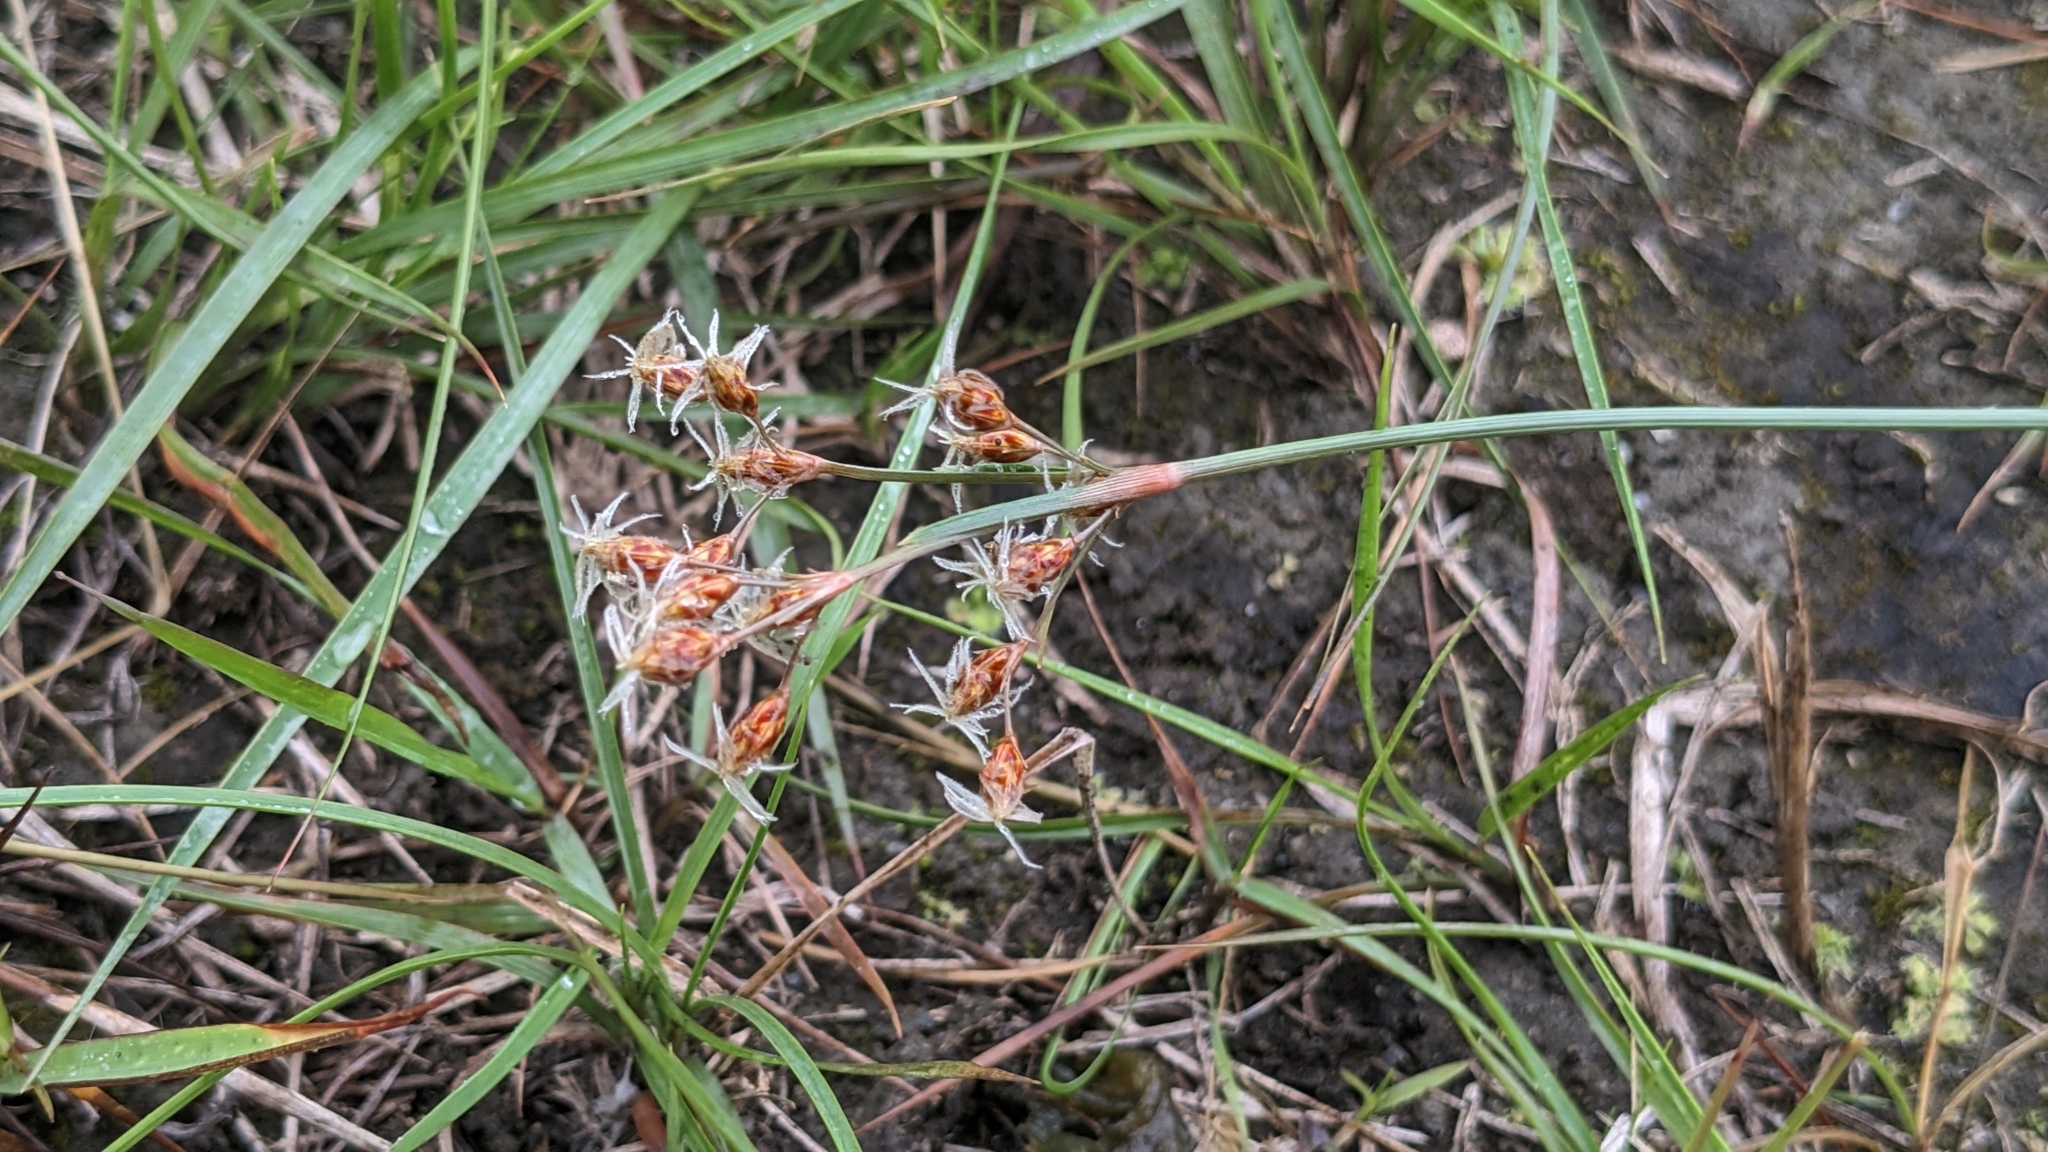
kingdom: Plantae
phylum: Tracheophyta
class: Liliopsida
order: Poales
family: Cyperaceae
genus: Fimbristylis
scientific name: Fimbristylis subinclinata
